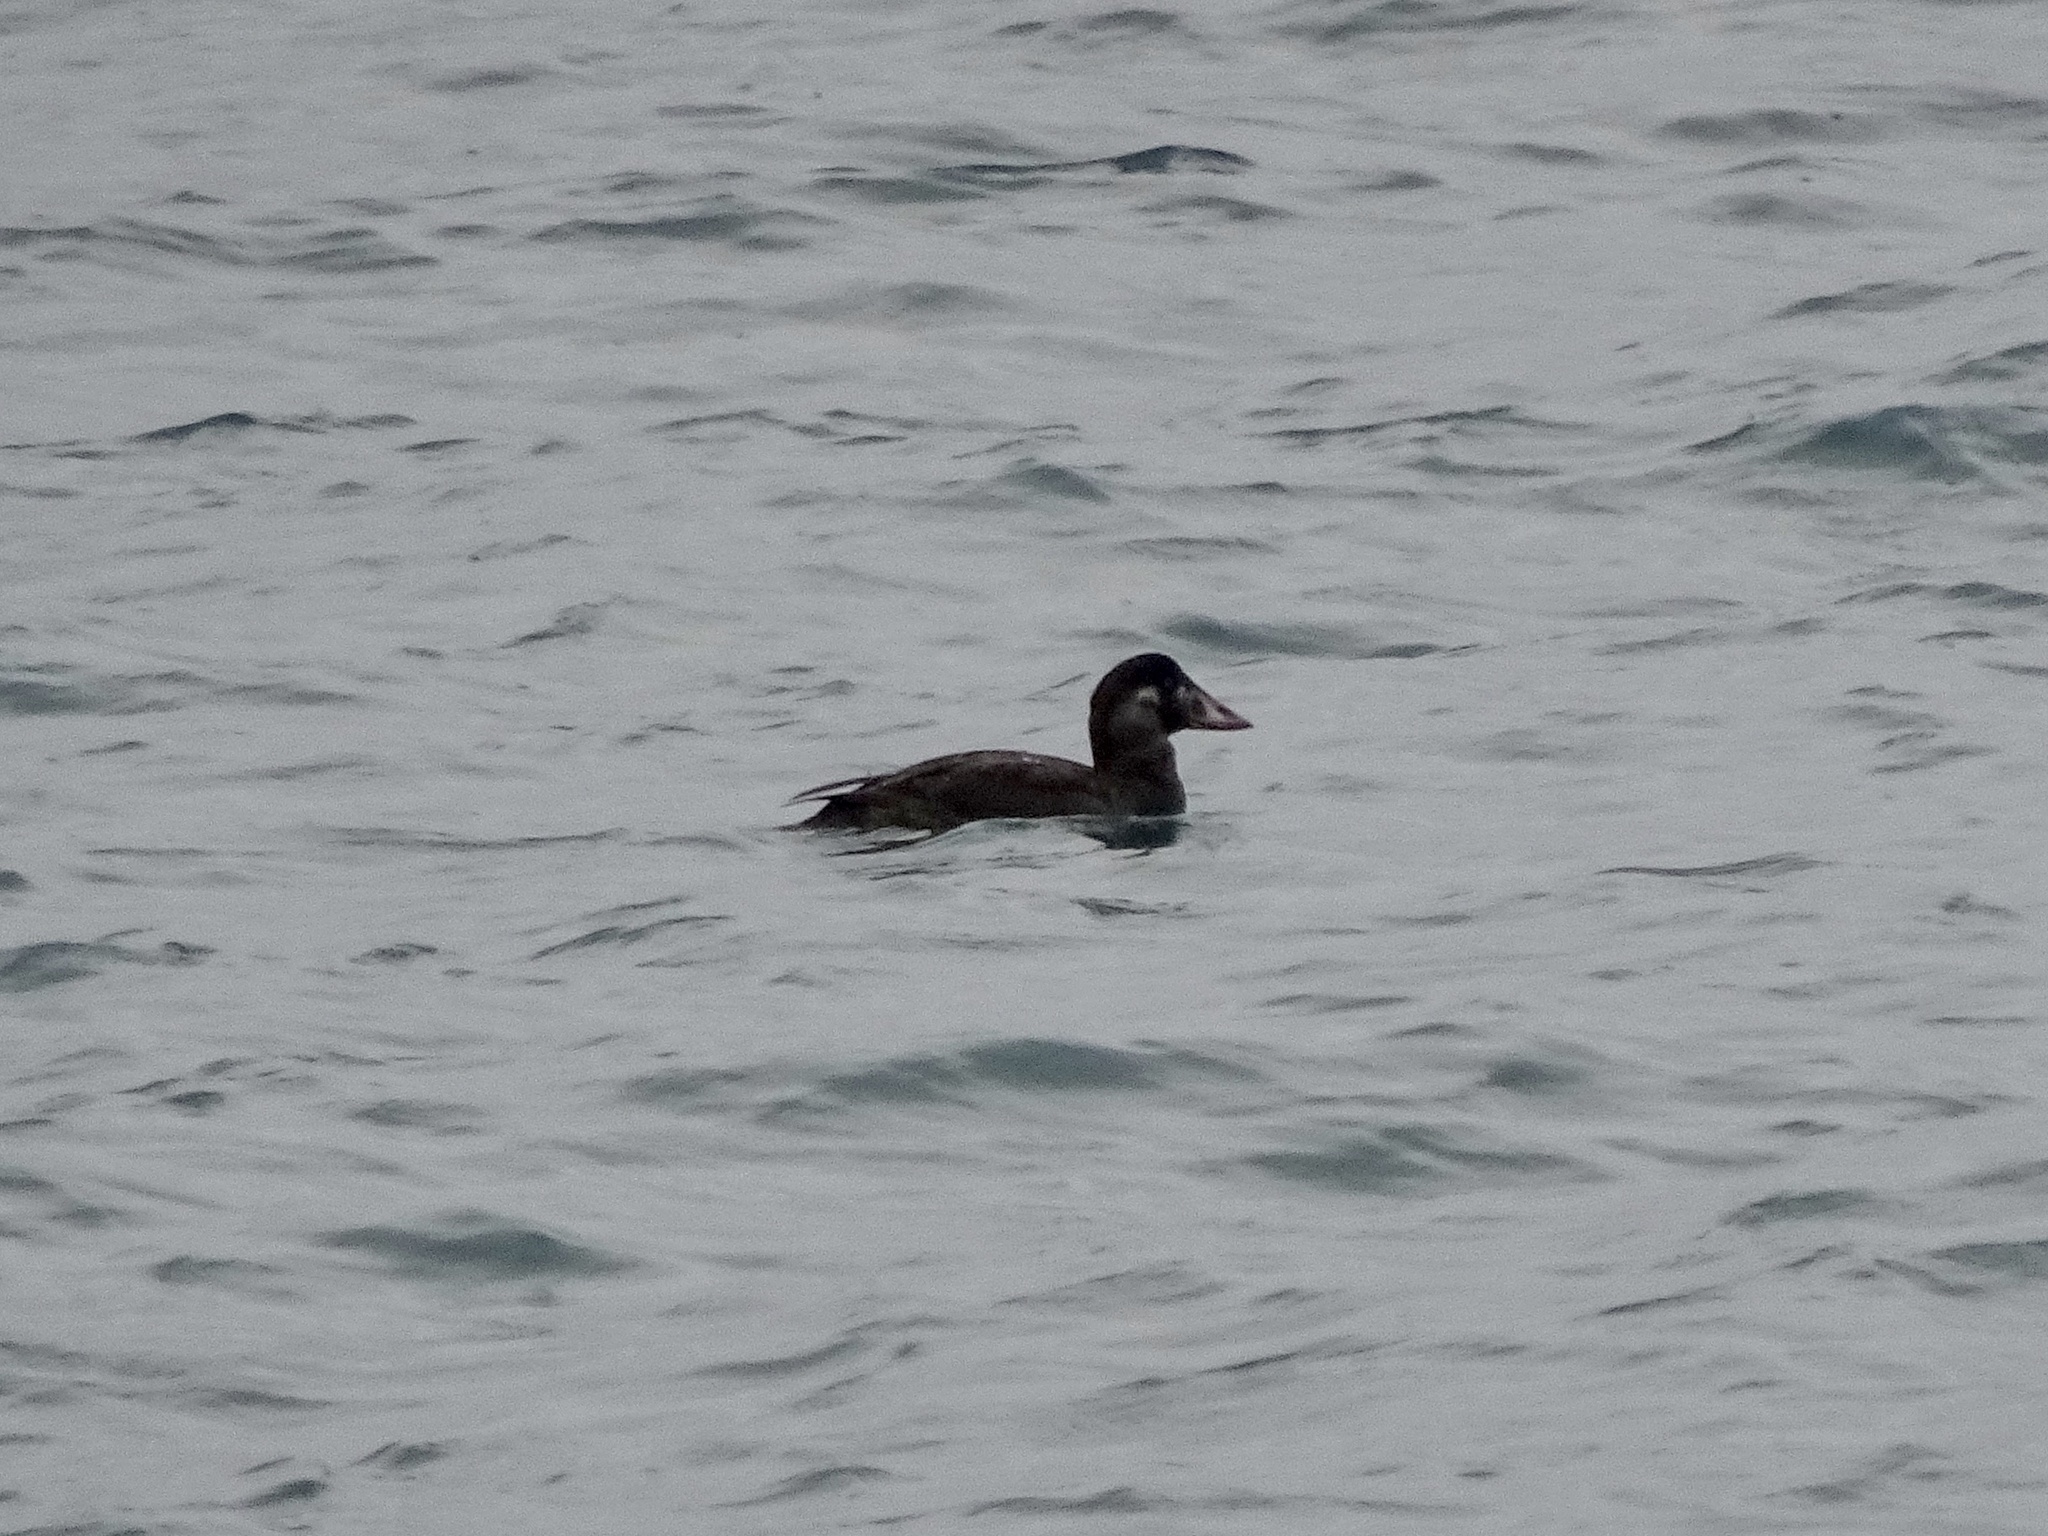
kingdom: Animalia
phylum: Chordata
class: Aves
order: Anseriformes
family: Anatidae
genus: Melanitta
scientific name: Melanitta perspicillata
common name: Surf scoter
